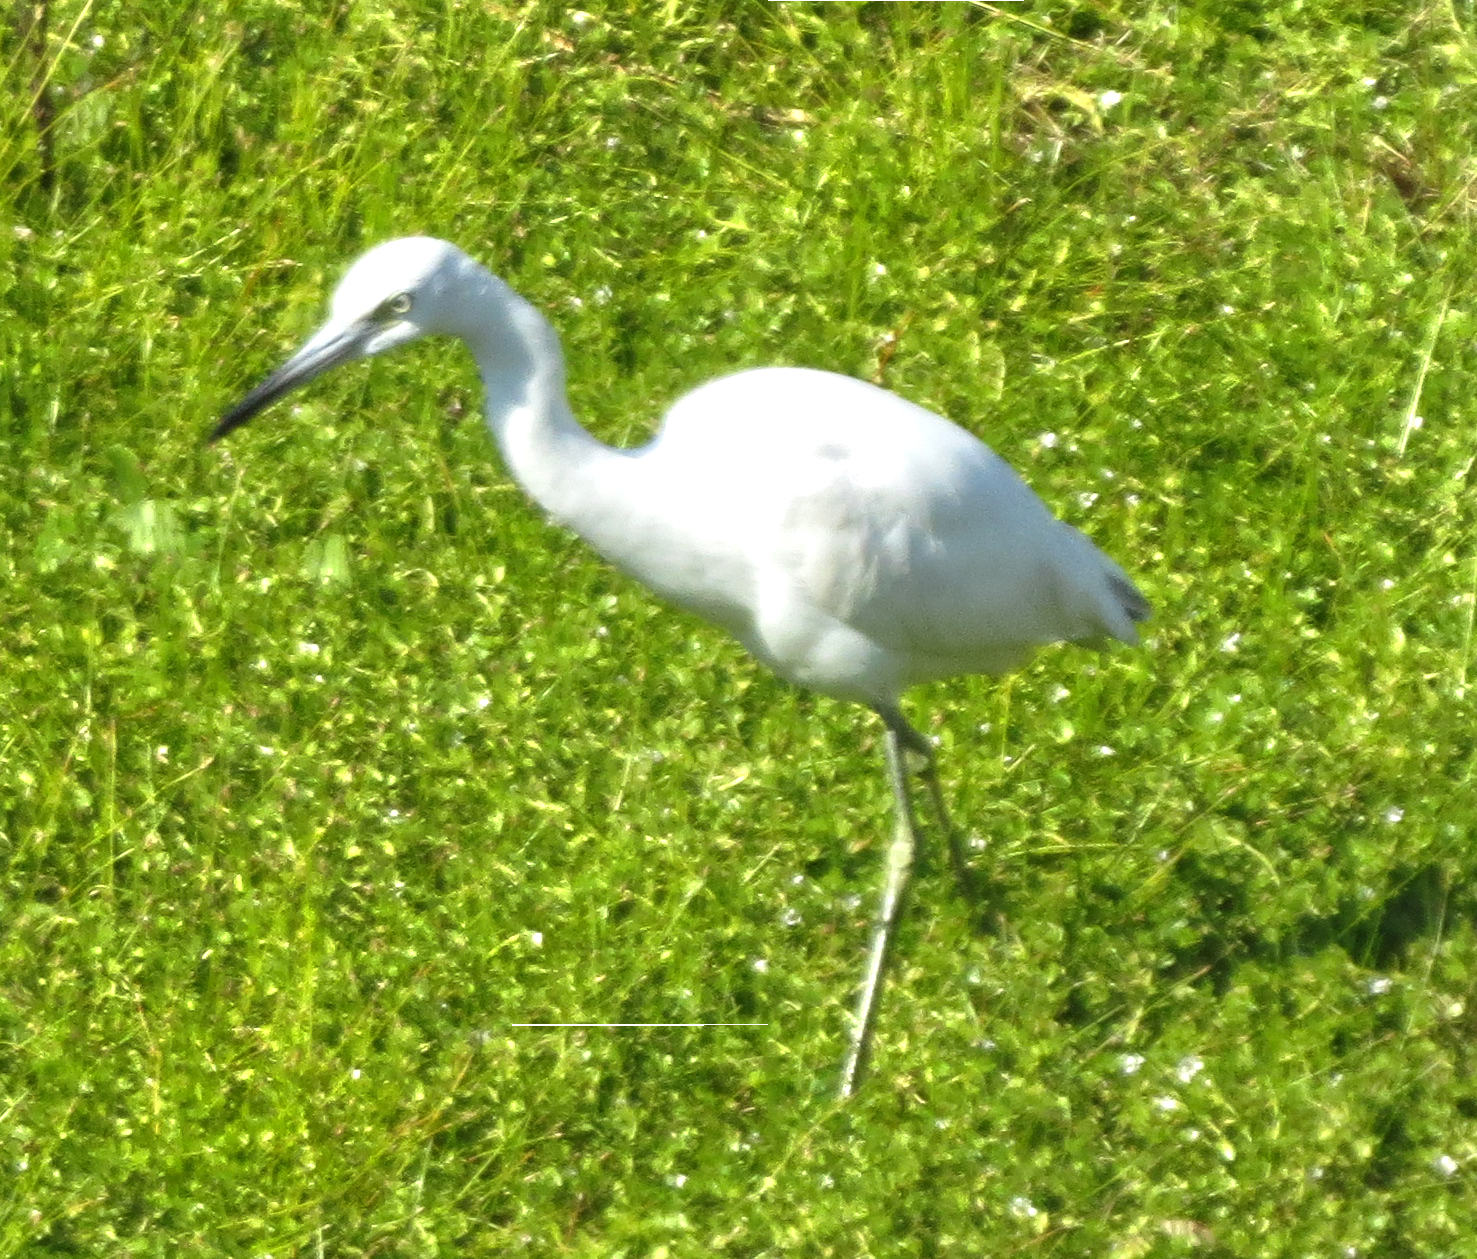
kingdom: Animalia
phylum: Chordata
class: Aves
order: Pelecaniformes
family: Ardeidae
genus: Egretta
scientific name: Egretta caerulea
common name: Little blue heron
